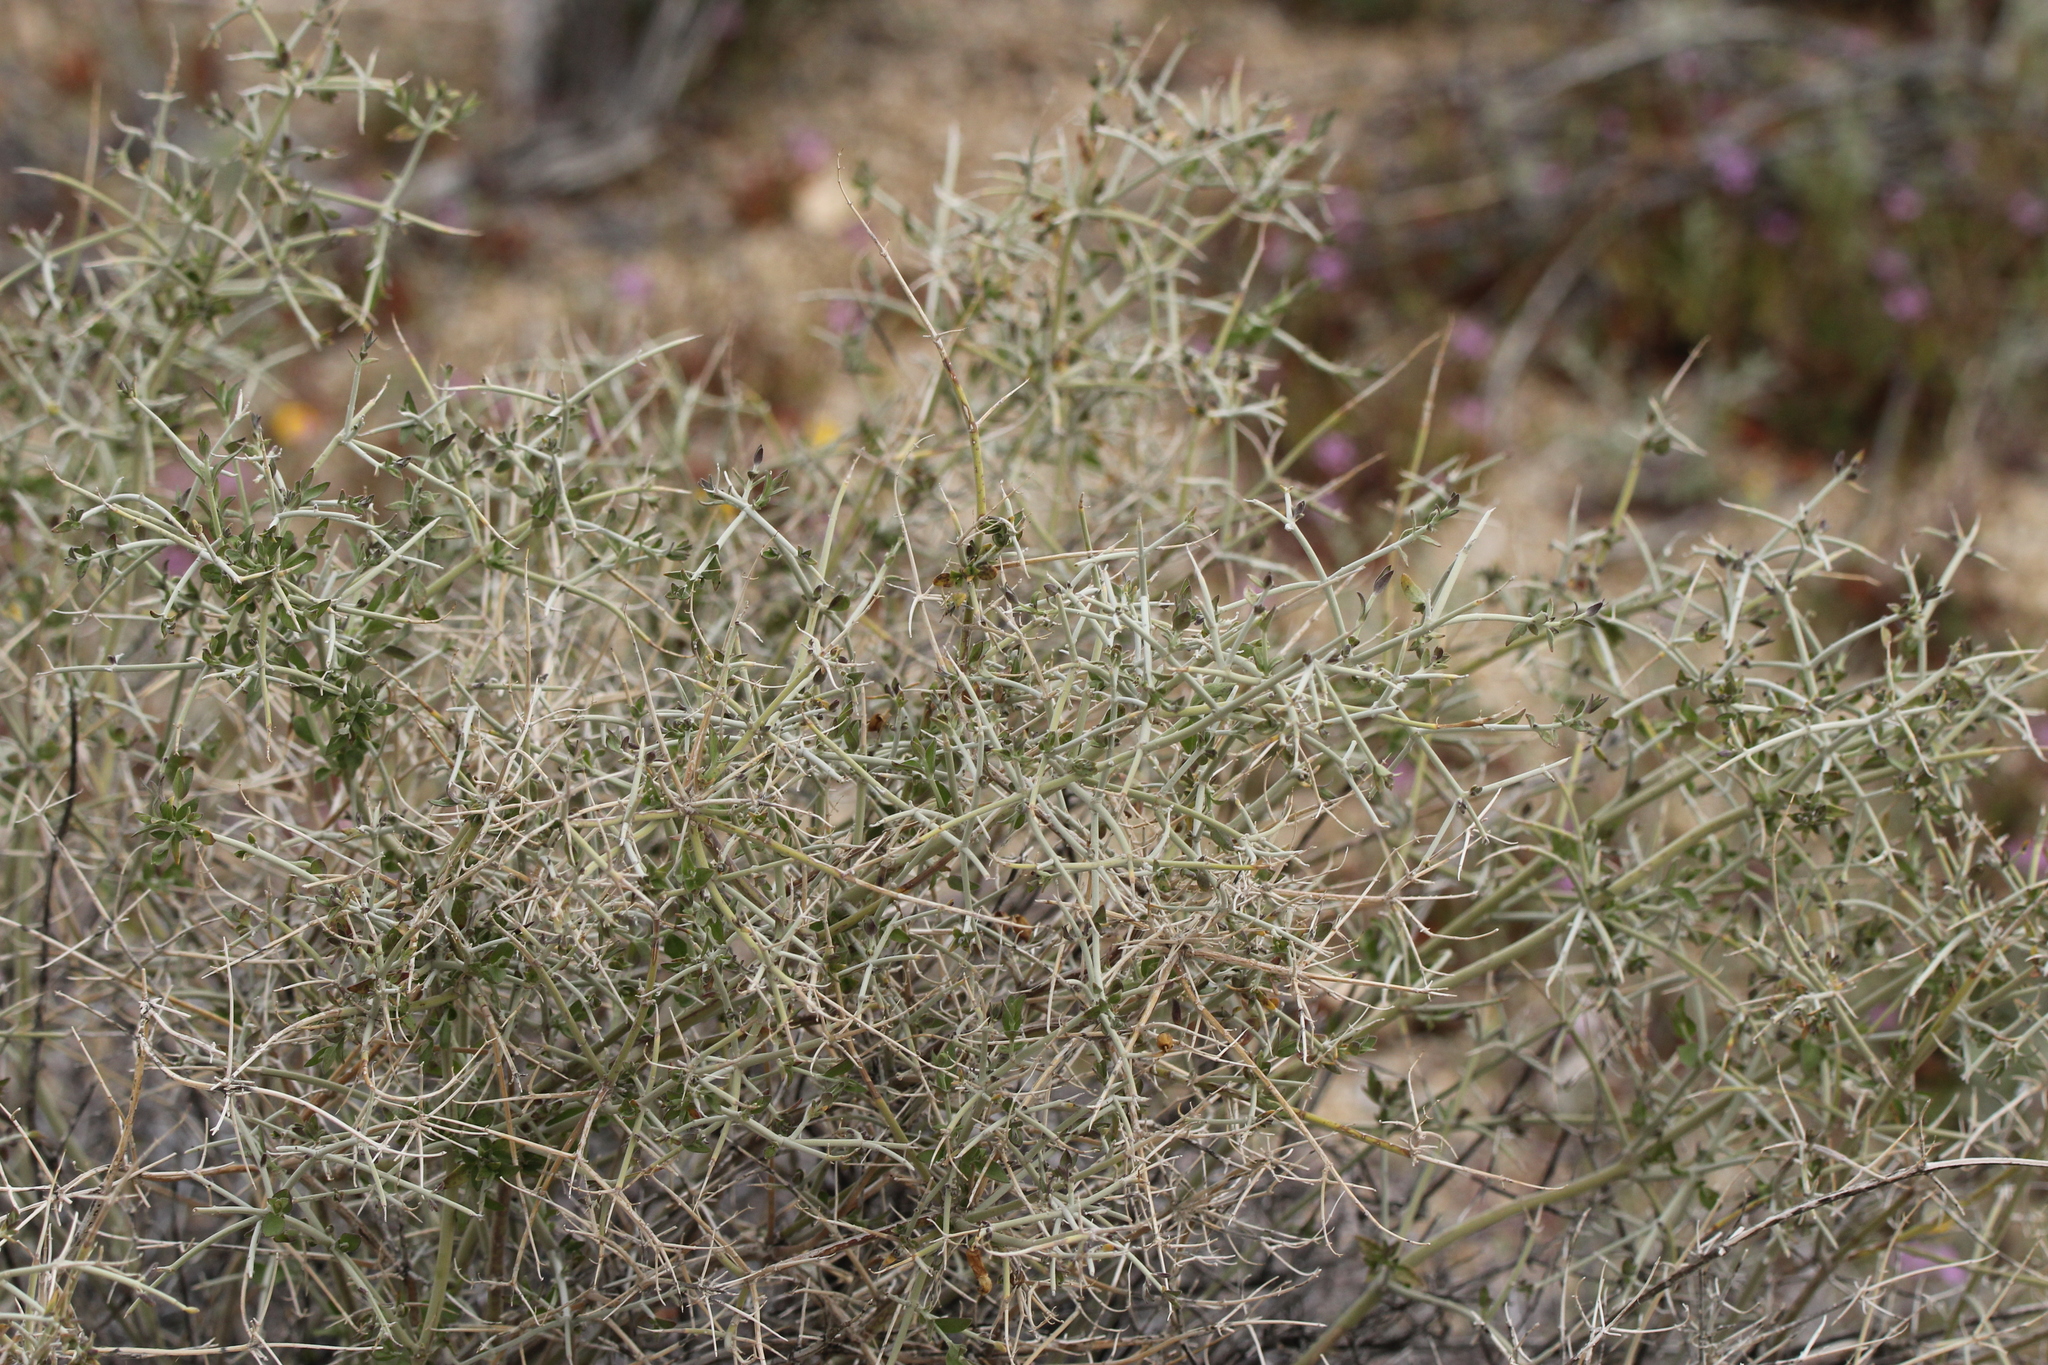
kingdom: Plantae
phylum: Tracheophyta
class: Magnoliopsida
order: Lamiales
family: Lamiaceae
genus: Scutellaria
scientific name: Scutellaria mexicana
